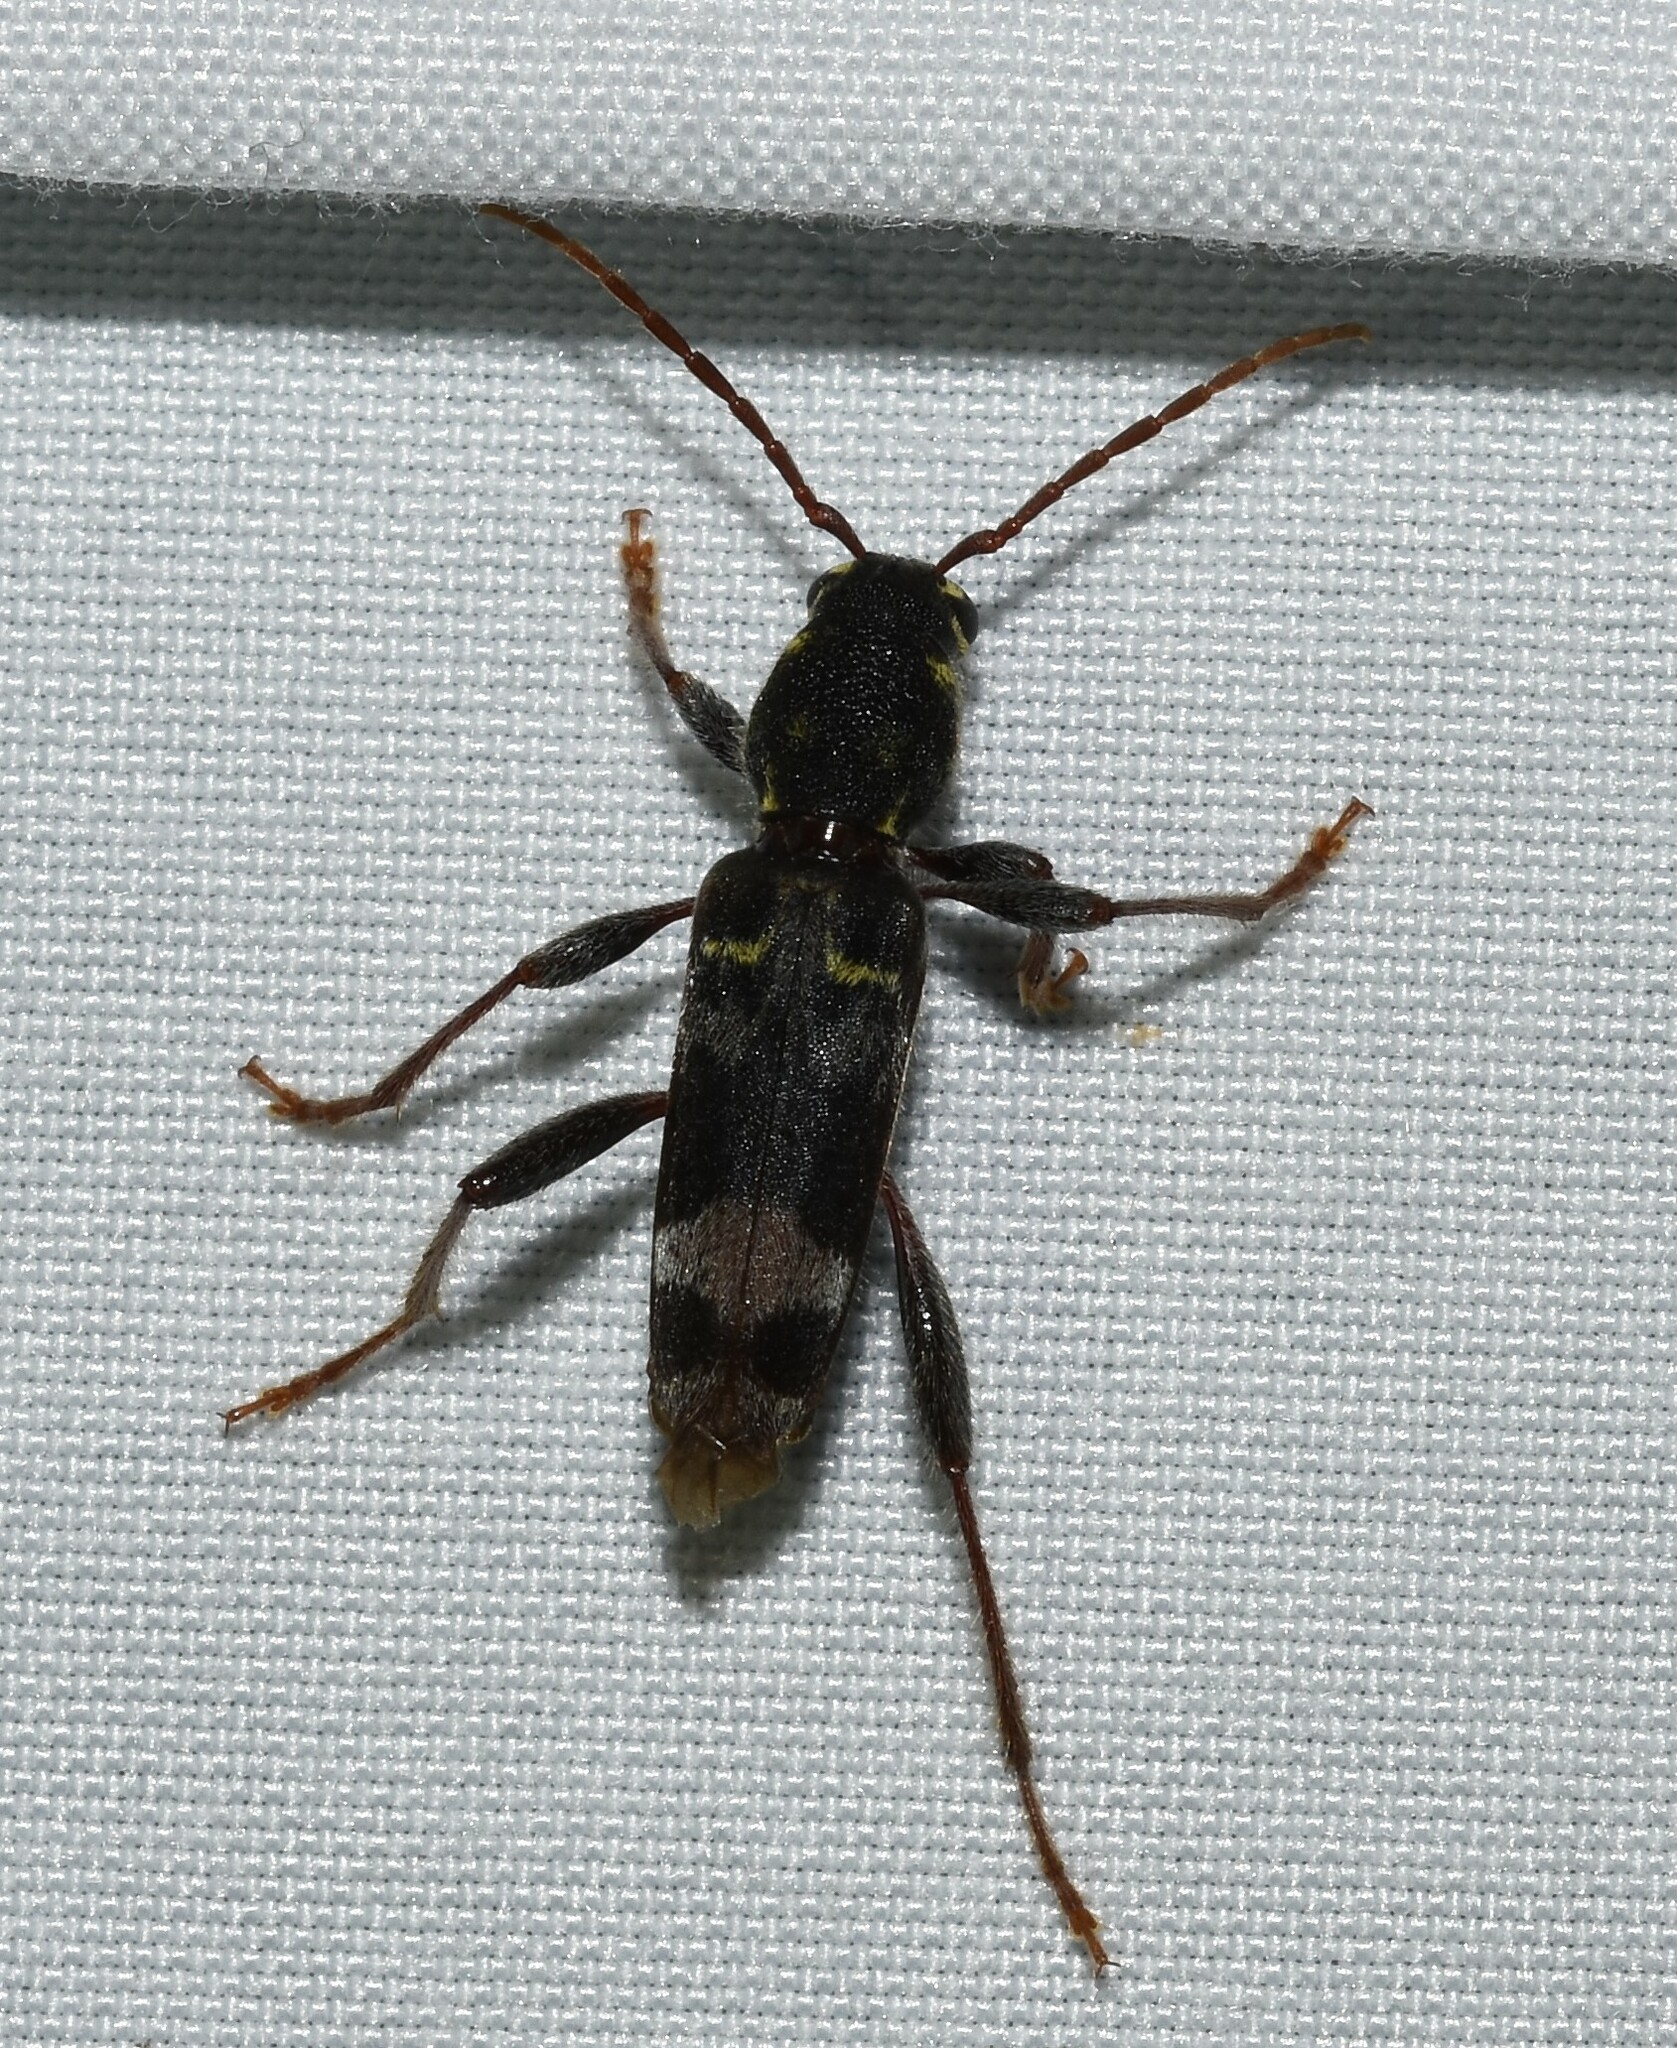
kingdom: Animalia
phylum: Arthropoda
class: Insecta
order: Coleoptera
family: Cerambycidae
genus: Xylotrechus
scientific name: Xylotrechus colonus
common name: Long-horned beetle
